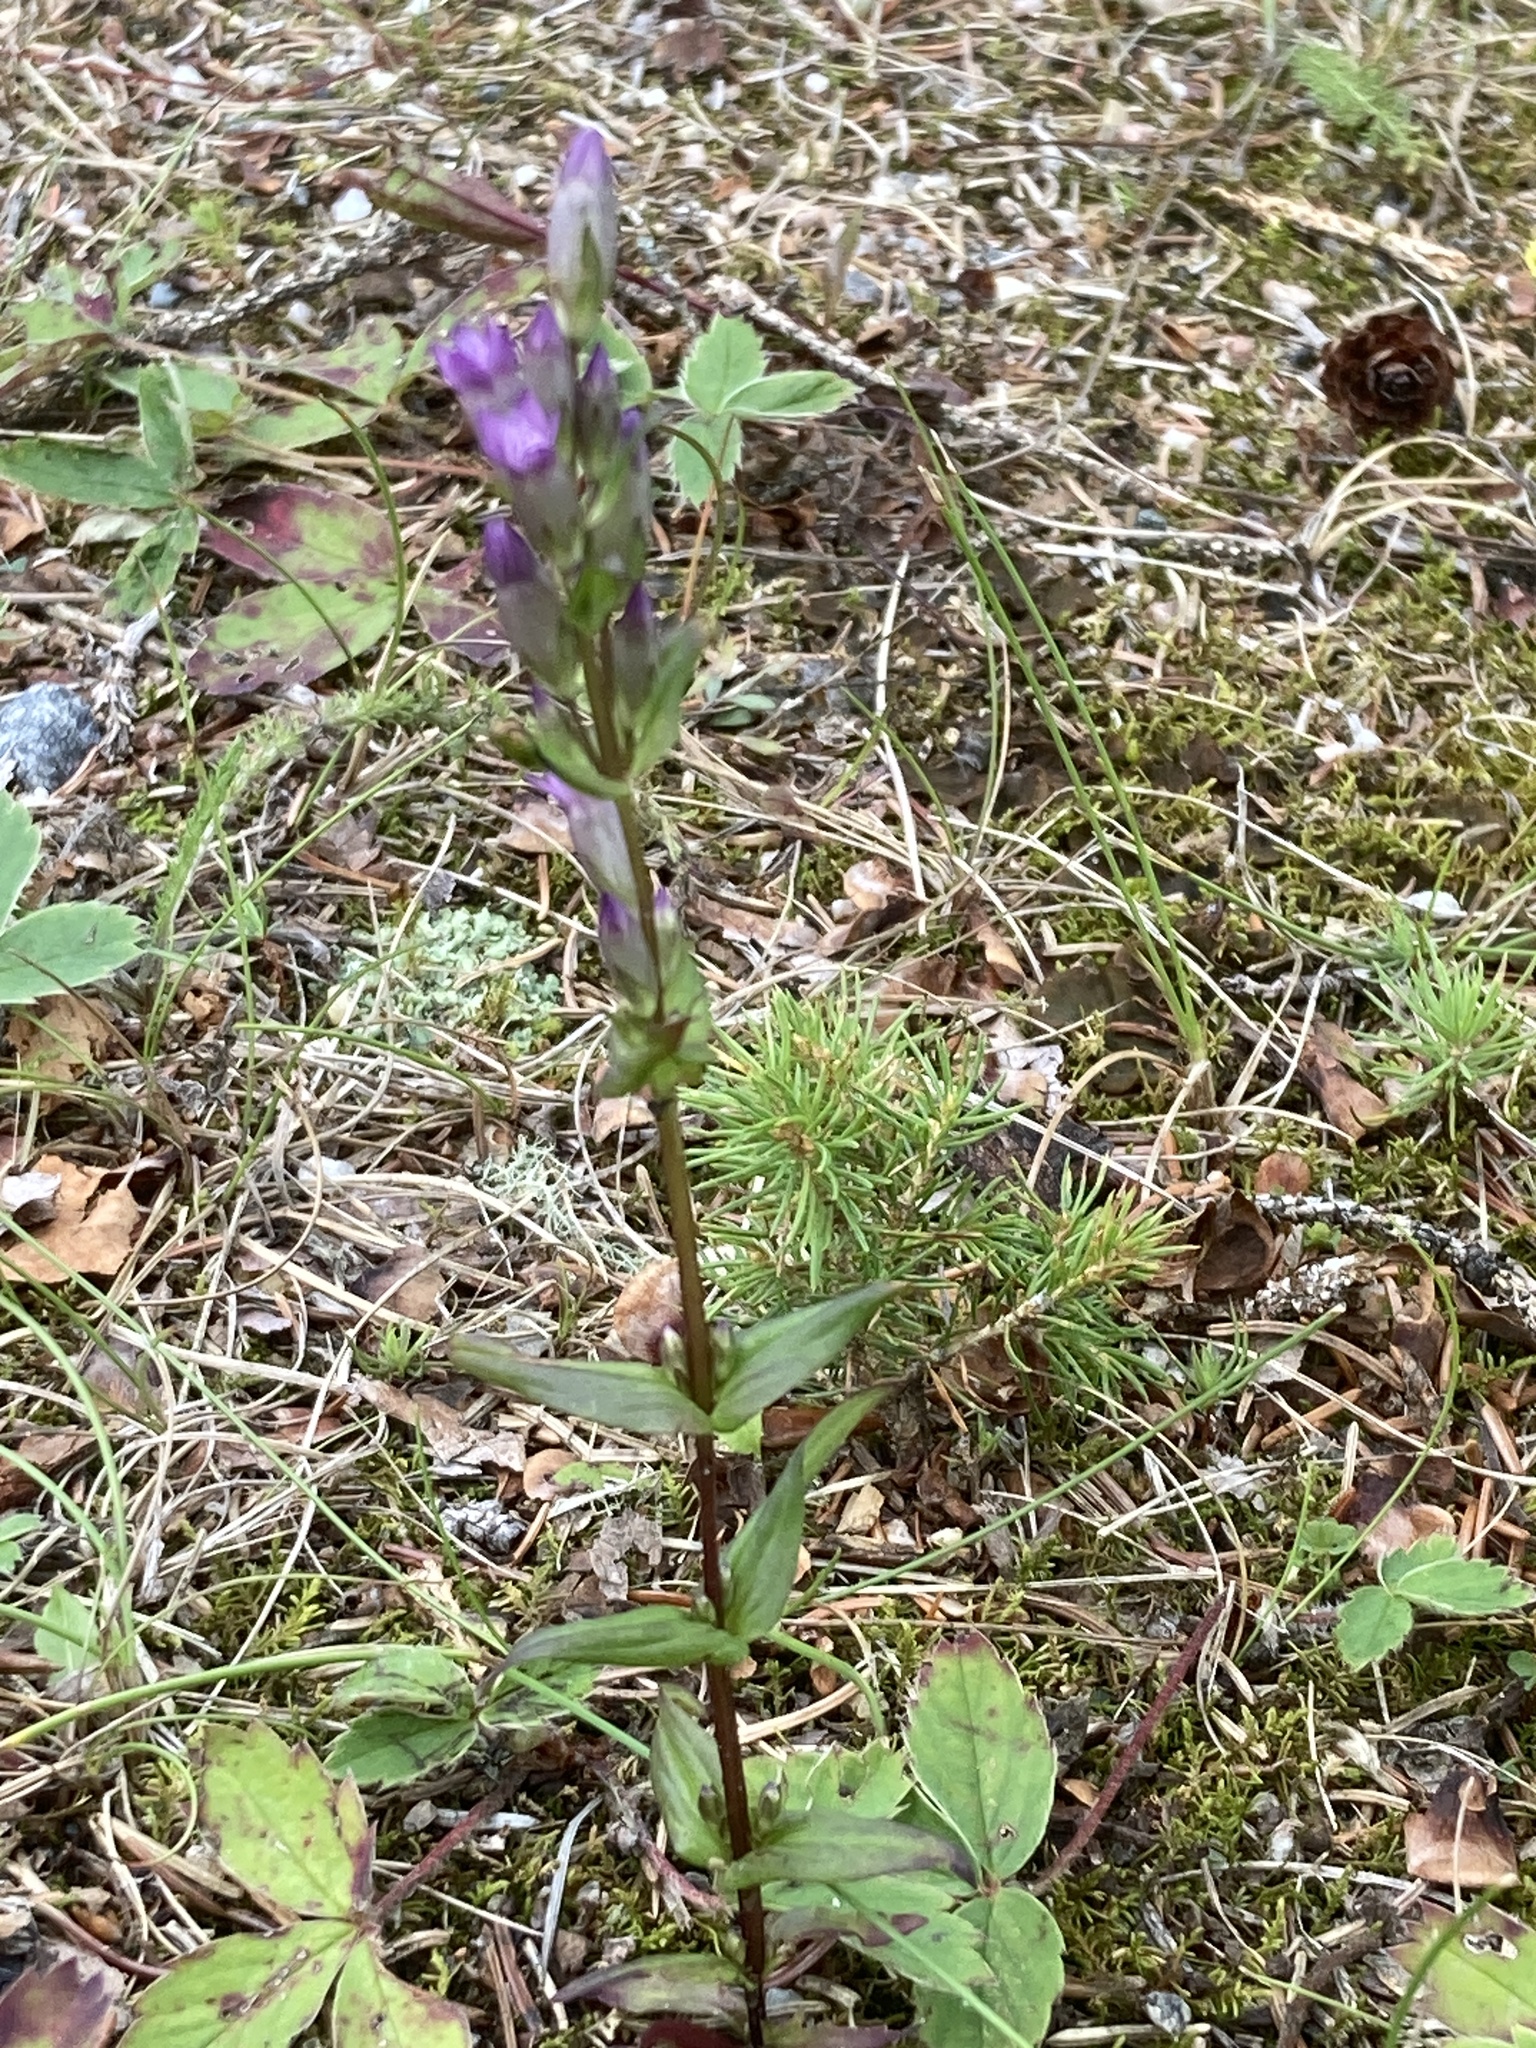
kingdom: Plantae
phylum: Tracheophyta
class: Magnoliopsida
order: Gentianales
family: Gentianaceae
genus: Gentianella
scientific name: Gentianella amarella
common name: Autumn gentian
